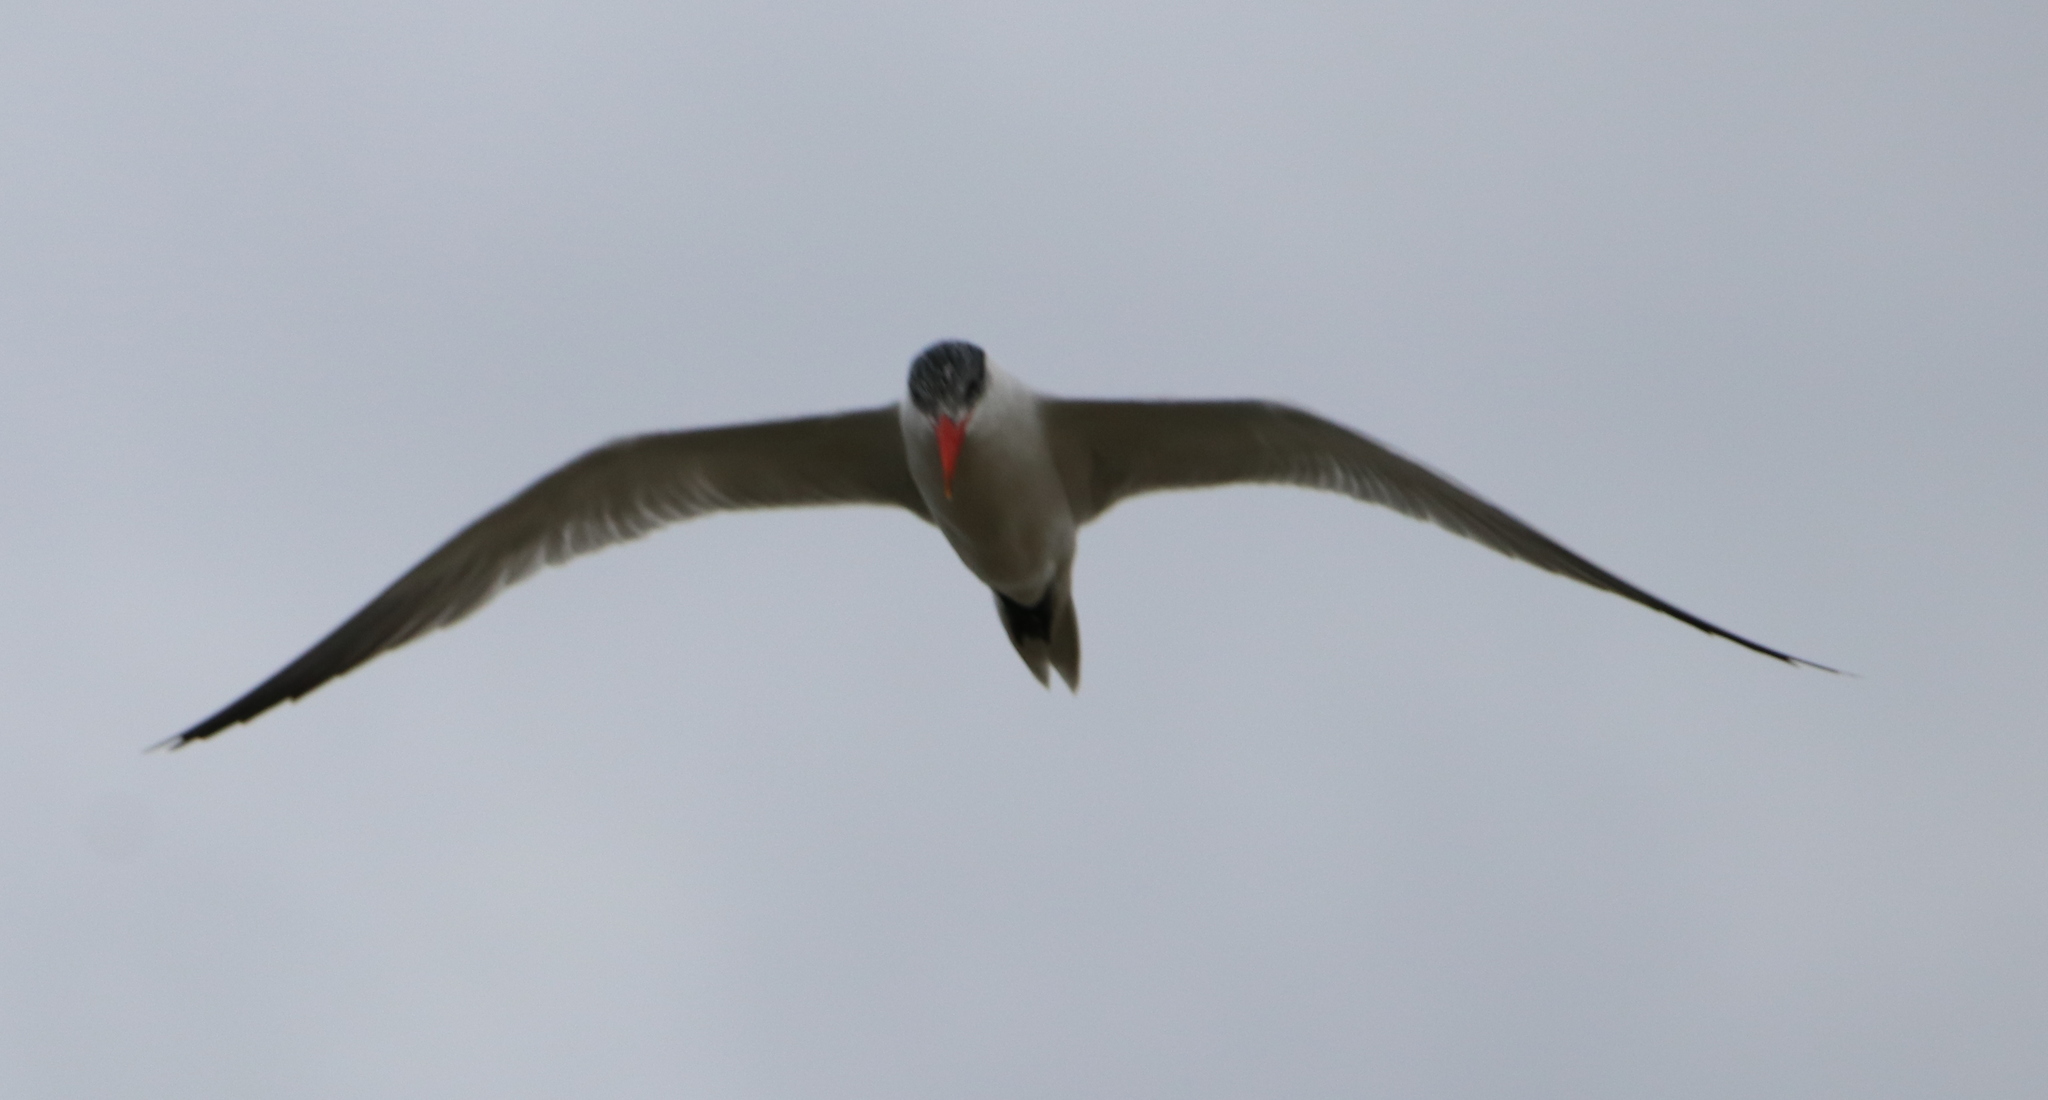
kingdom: Animalia
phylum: Chordata
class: Aves
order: Charadriiformes
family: Laridae
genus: Hydroprogne
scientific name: Hydroprogne caspia
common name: Caspian tern
